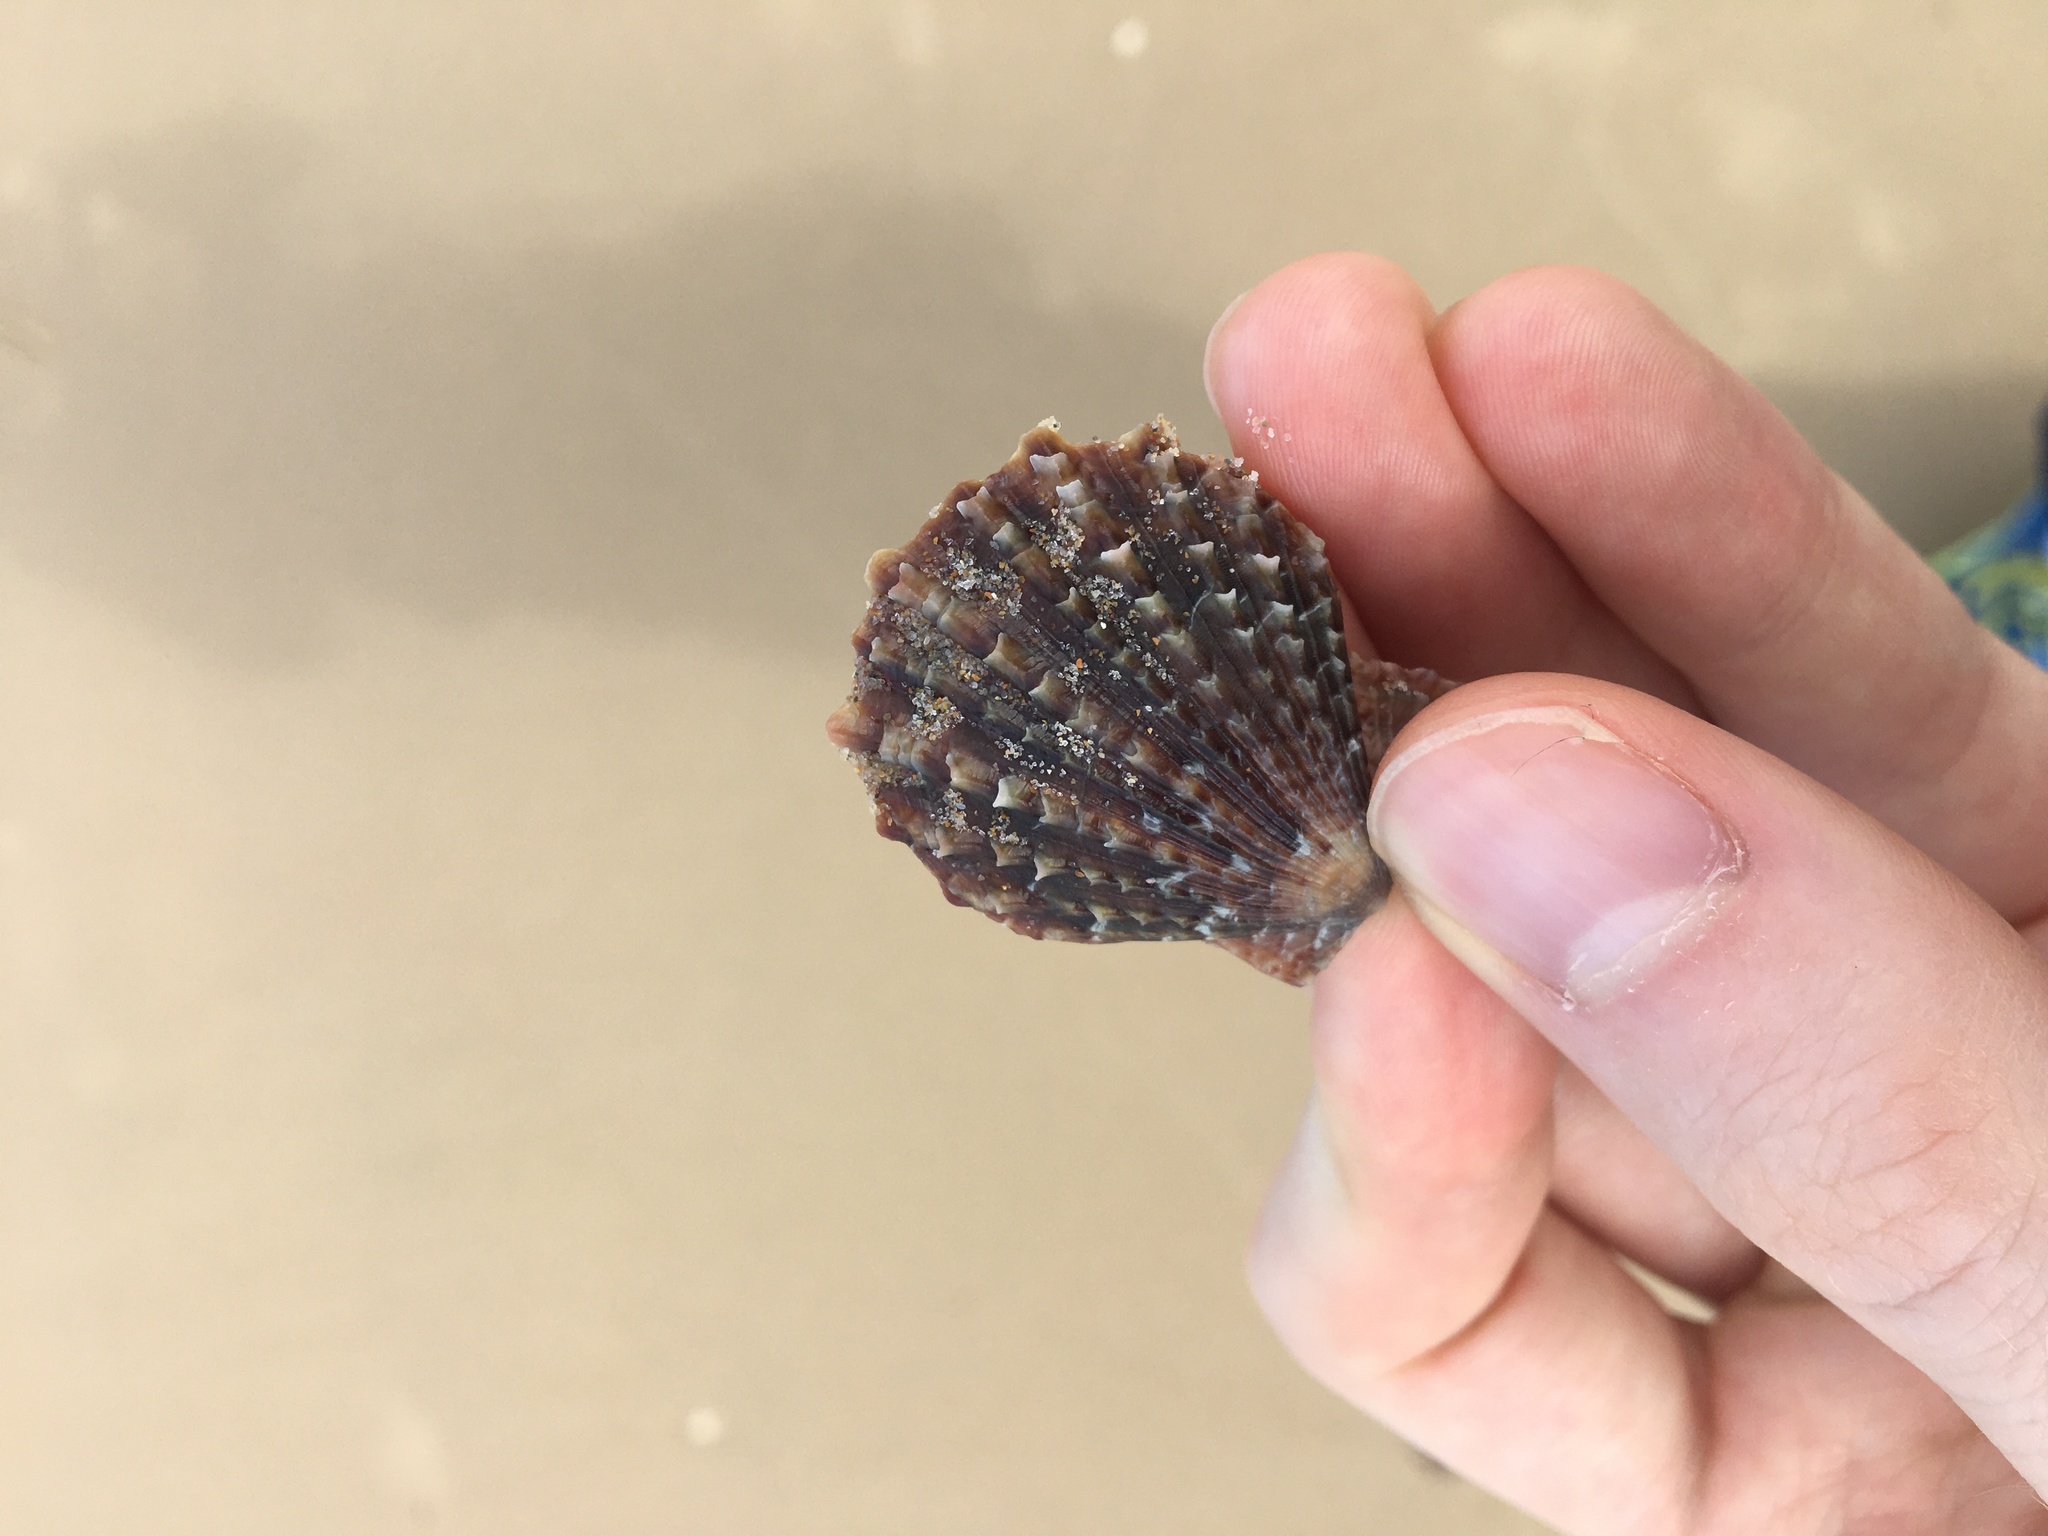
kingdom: Animalia
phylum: Mollusca
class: Bivalvia
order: Pectinida
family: Pectinidae
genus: Scaeochlamys
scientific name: Scaeochlamys livida
